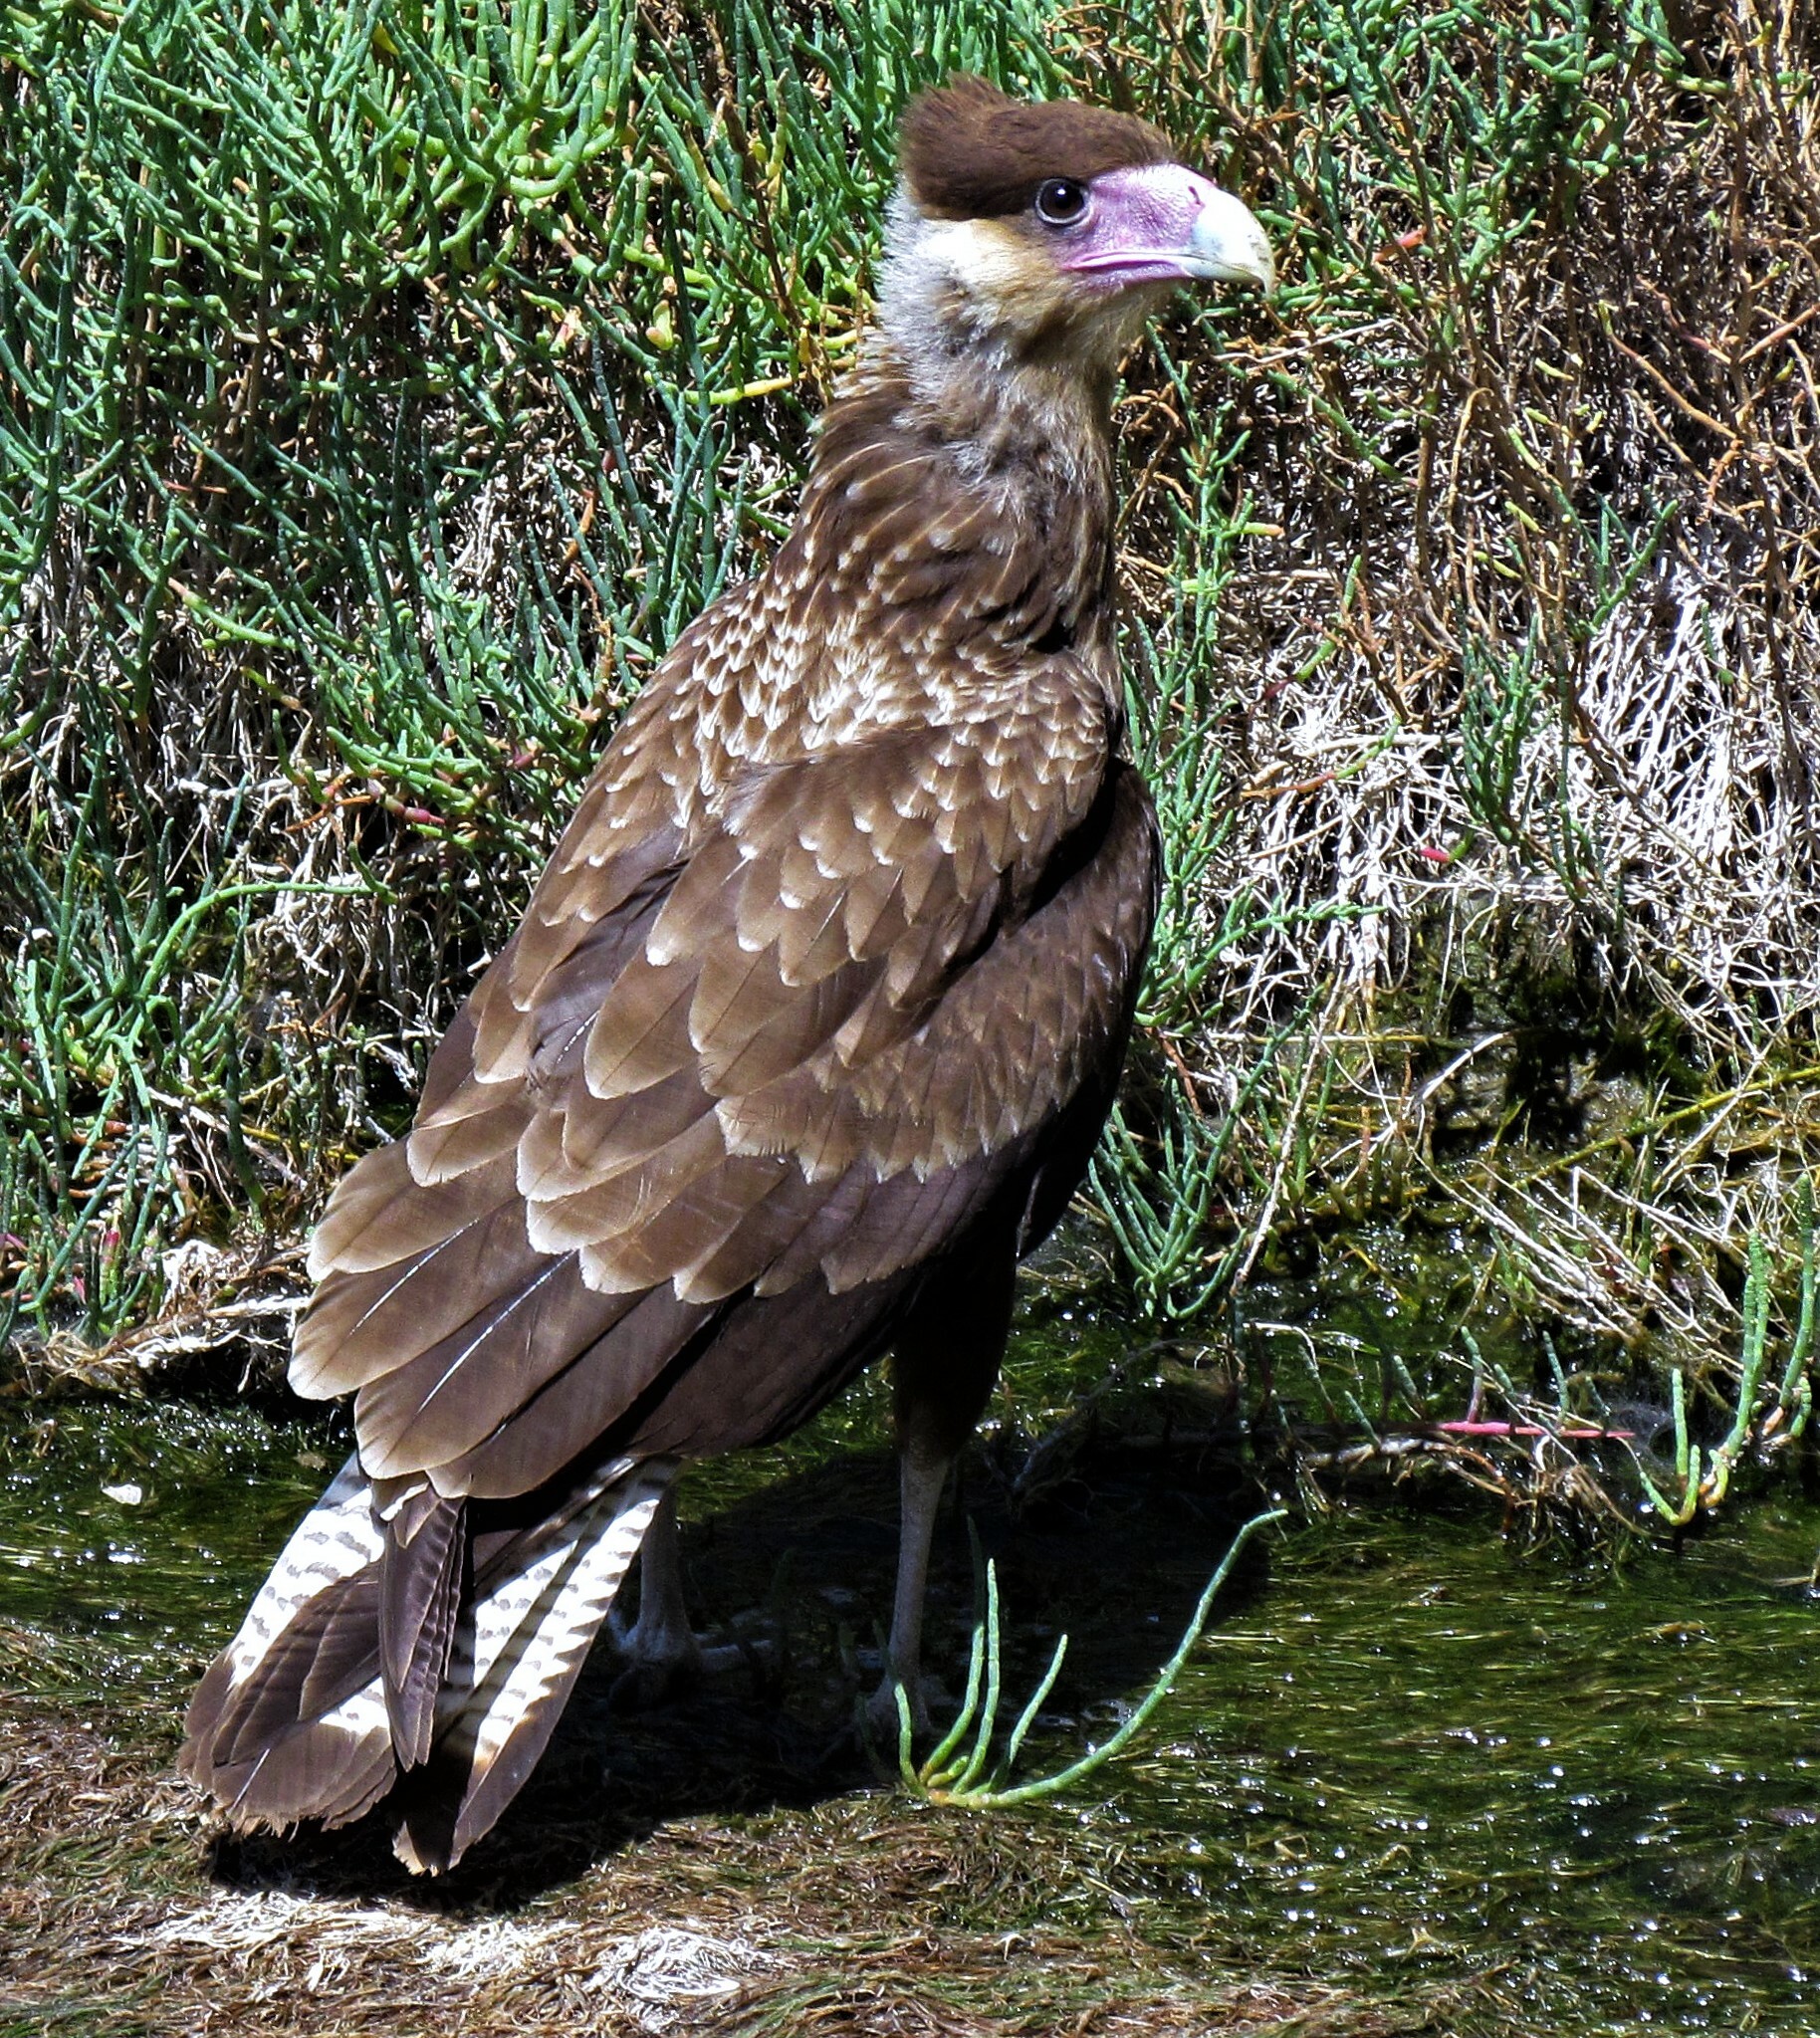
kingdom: Animalia
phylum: Chordata
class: Aves
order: Falconiformes
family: Falconidae
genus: Caracara
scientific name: Caracara plancus
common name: Southern caracara
